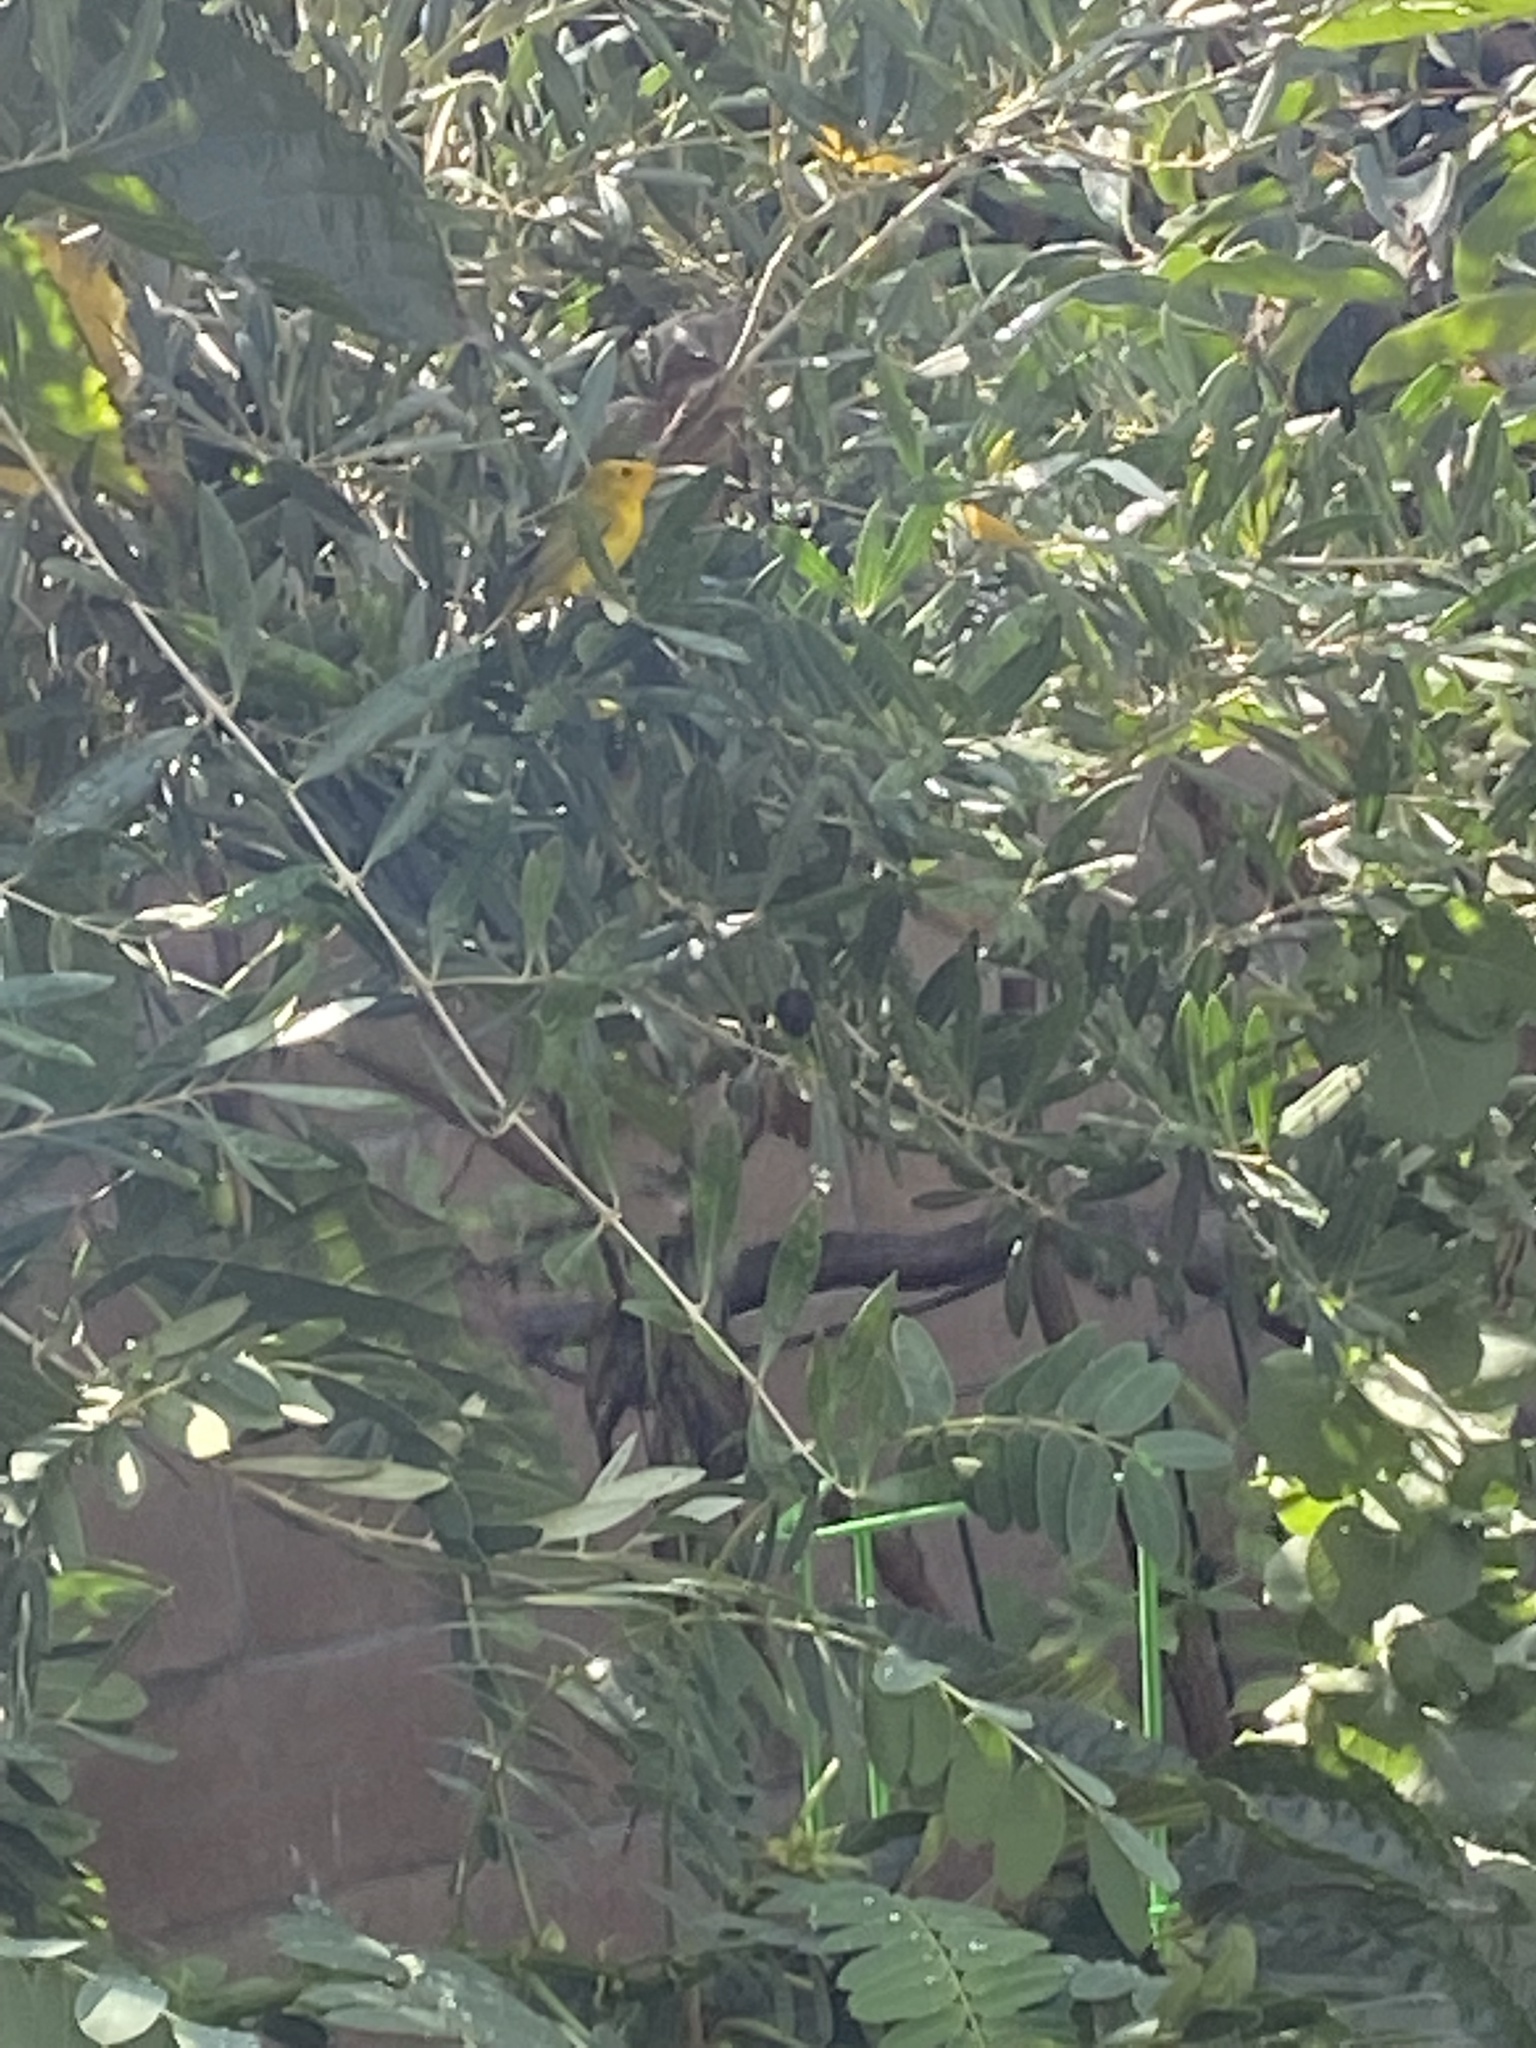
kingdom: Animalia
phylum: Chordata
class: Aves
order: Passeriformes
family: Parulidae
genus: Cardellina
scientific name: Cardellina pusilla
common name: Wilson's warbler
